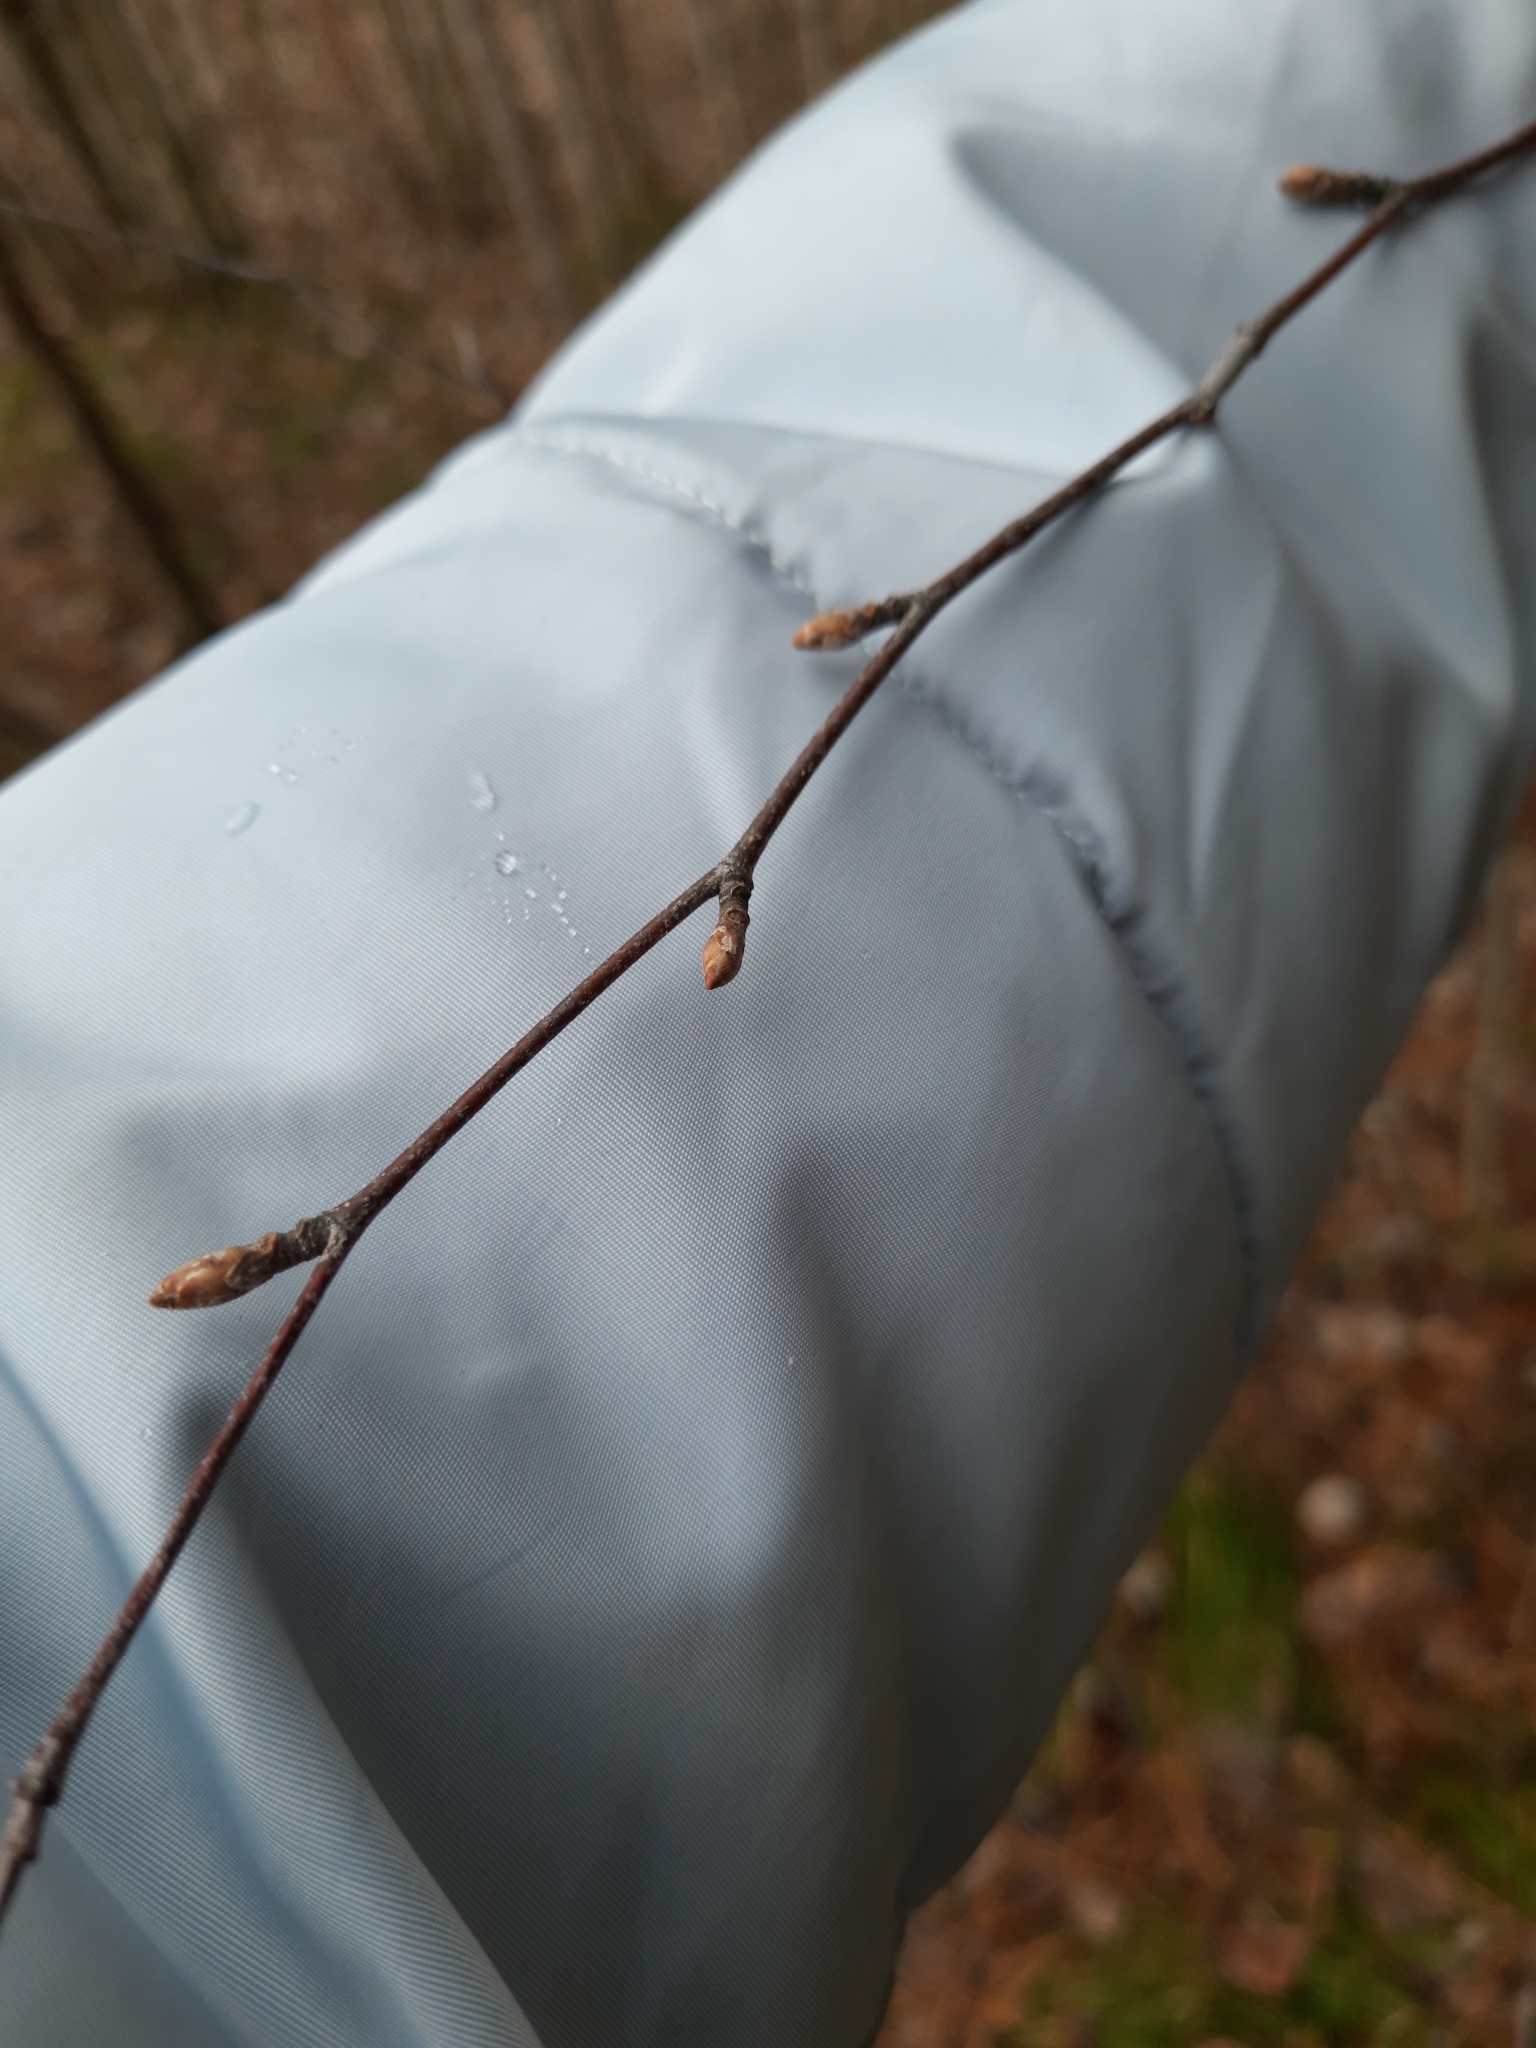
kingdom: Plantae
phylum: Tracheophyta
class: Magnoliopsida
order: Fagales
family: Betulaceae
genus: Betula
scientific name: Betula pendula
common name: Silver birch
